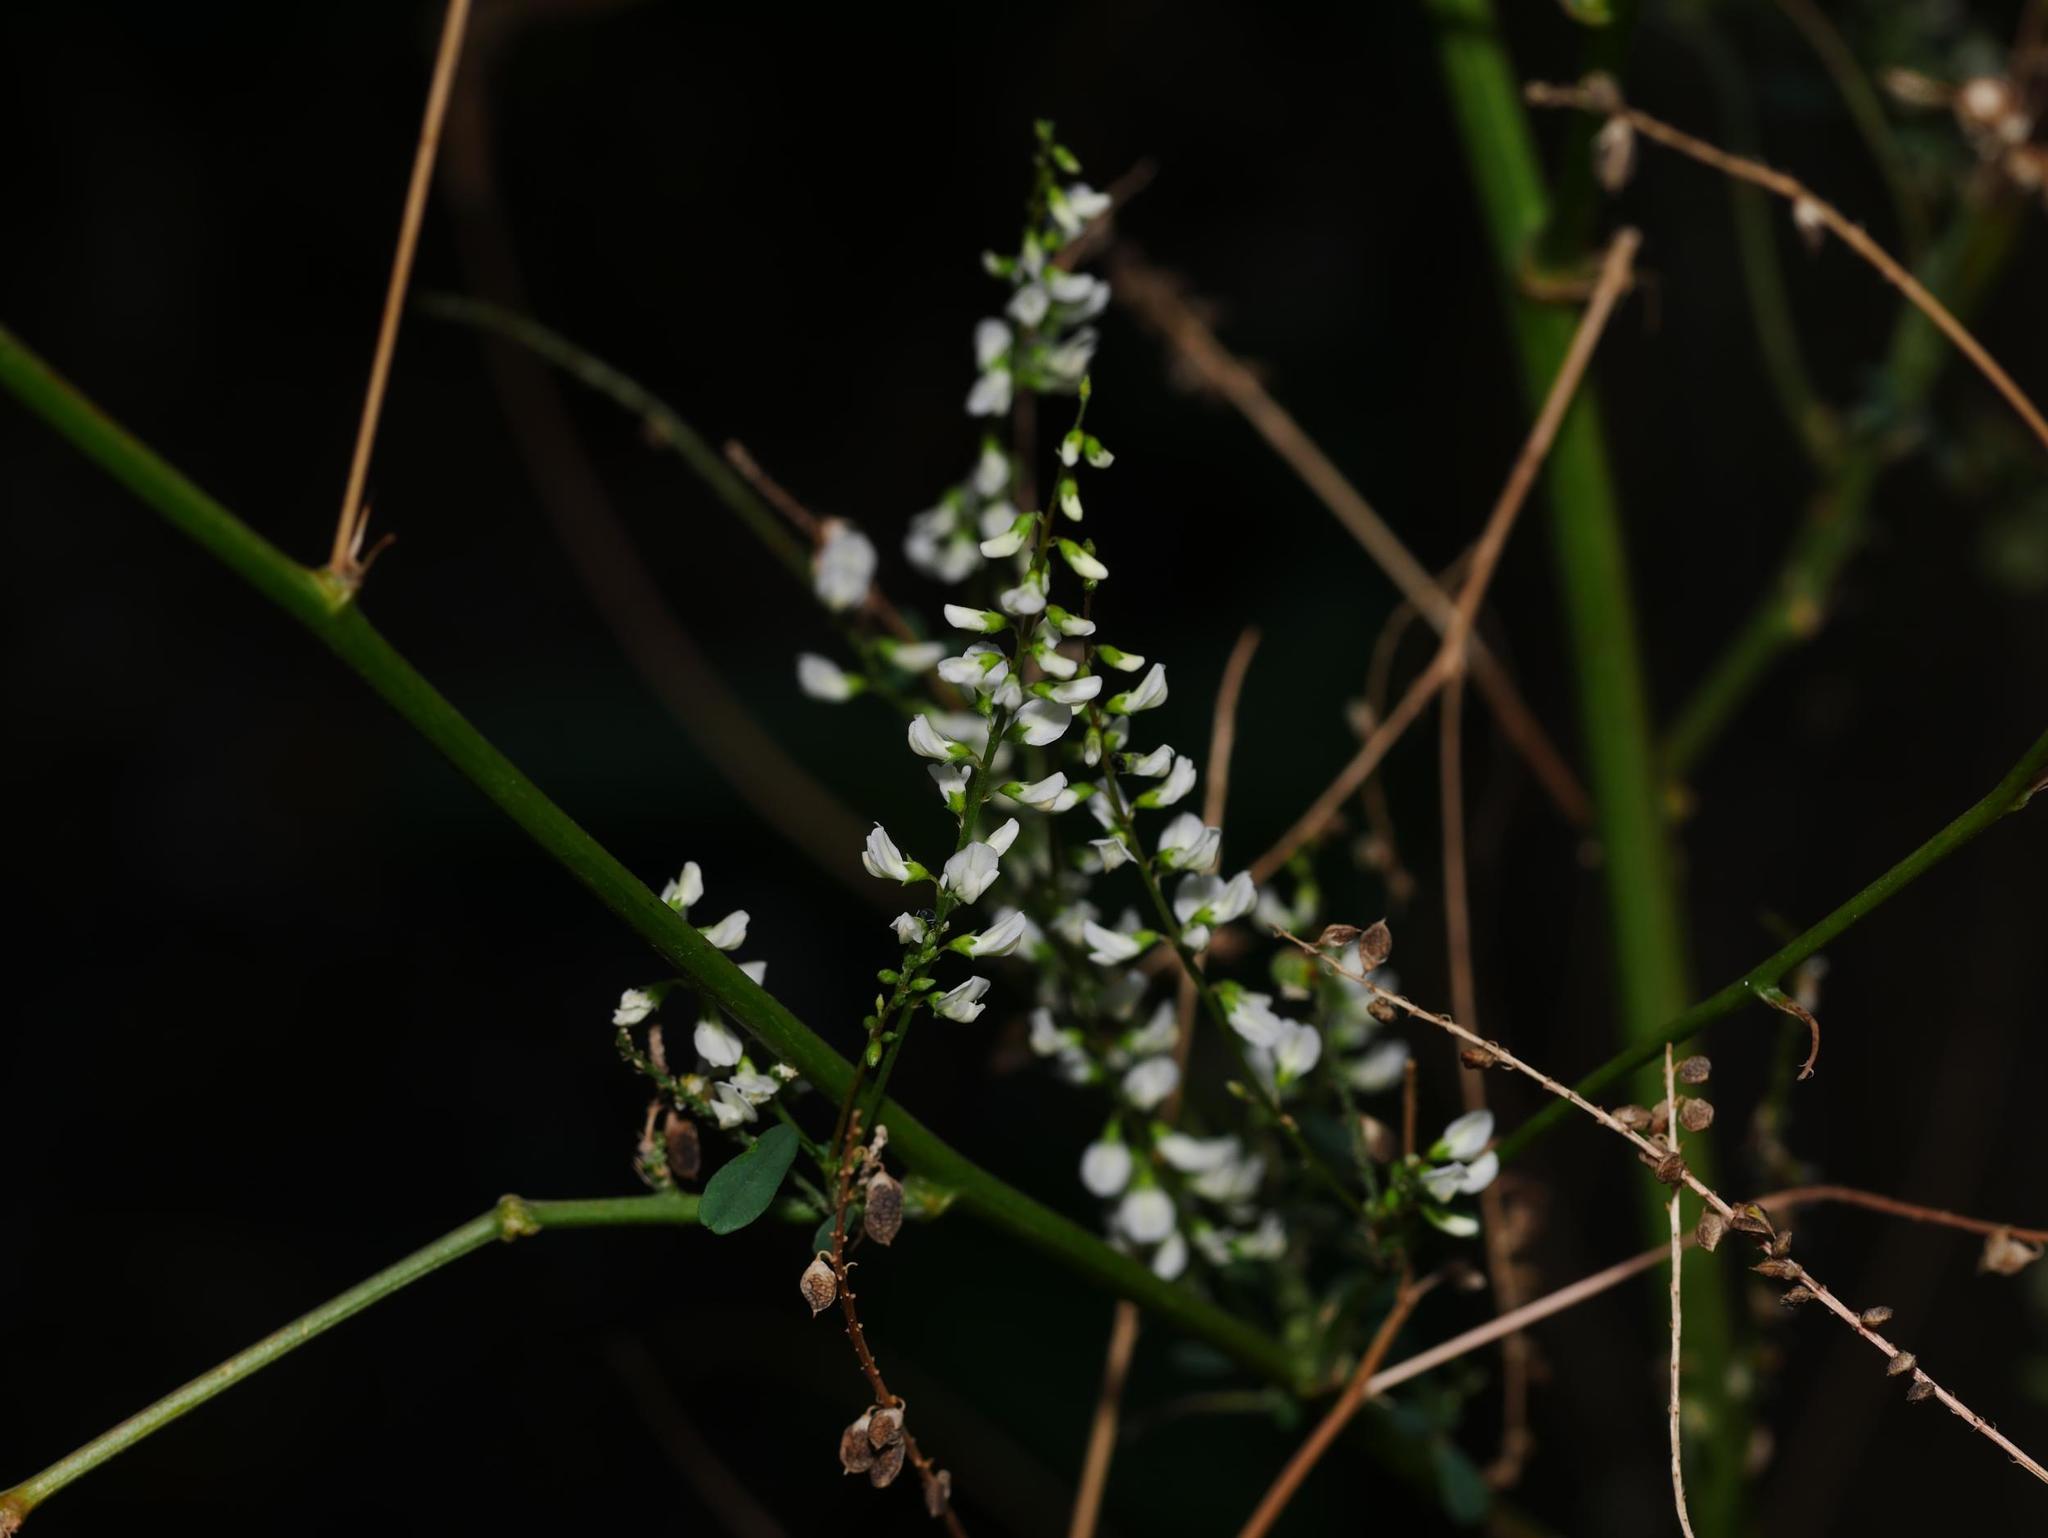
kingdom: Plantae
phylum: Tracheophyta
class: Magnoliopsida
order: Fabales
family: Fabaceae
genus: Melilotus
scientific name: Melilotus albus
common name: White melilot
